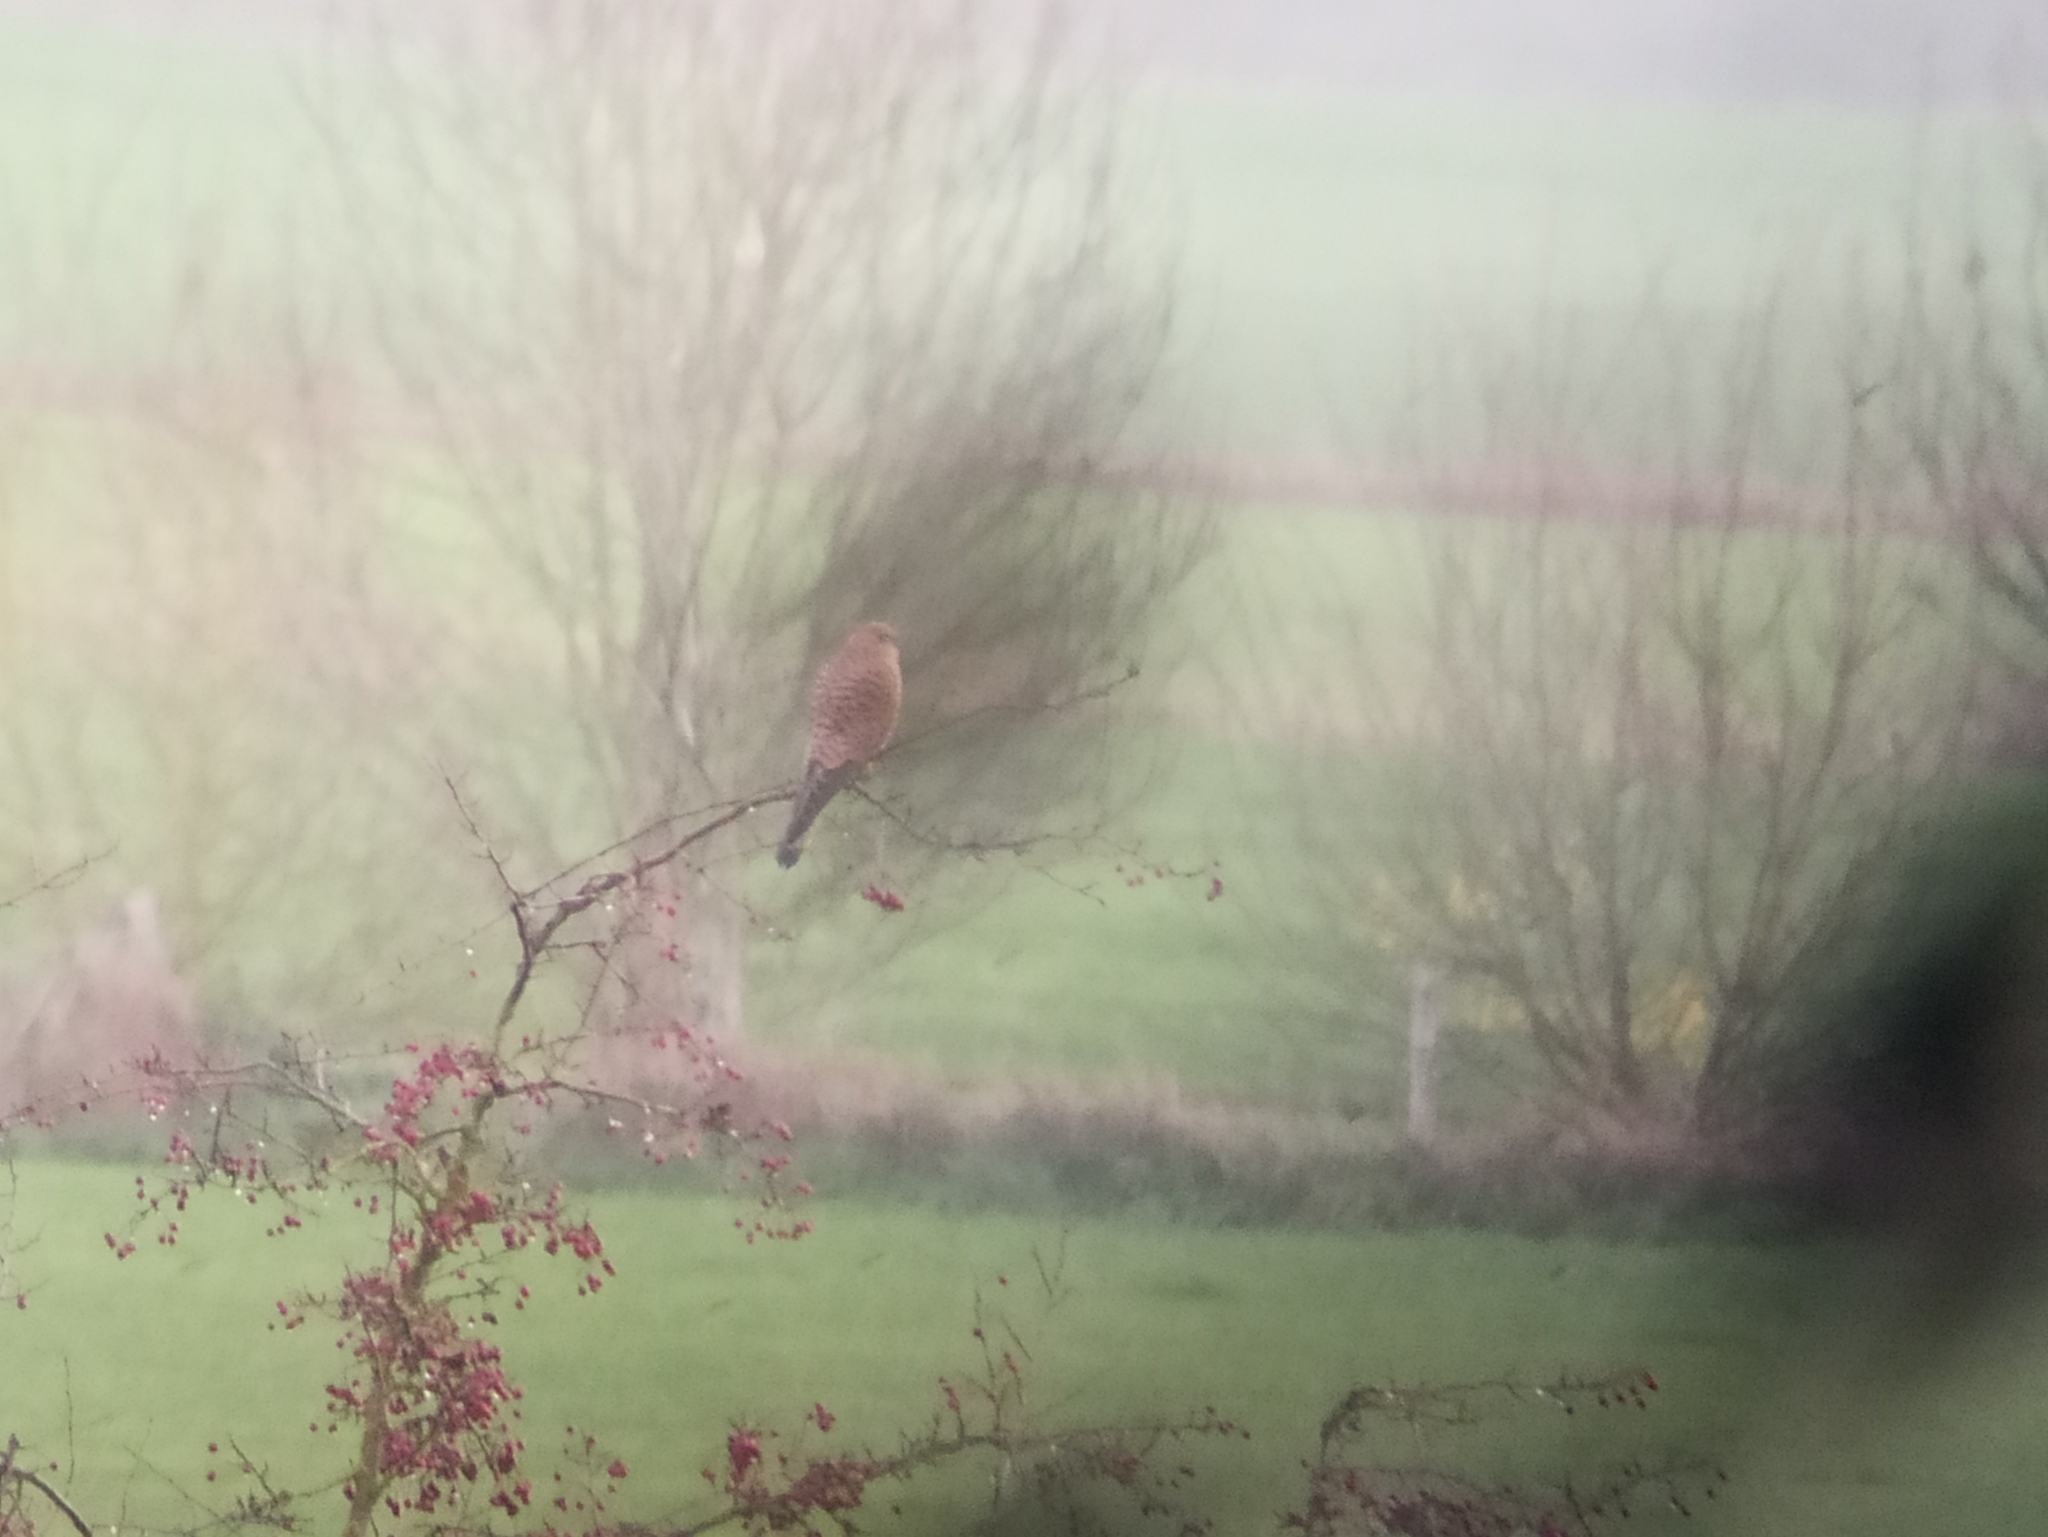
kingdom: Animalia
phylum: Chordata
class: Aves
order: Falconiformes
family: Falconidae
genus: Falco
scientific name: Falco tinnunculus
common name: Common kestrel
